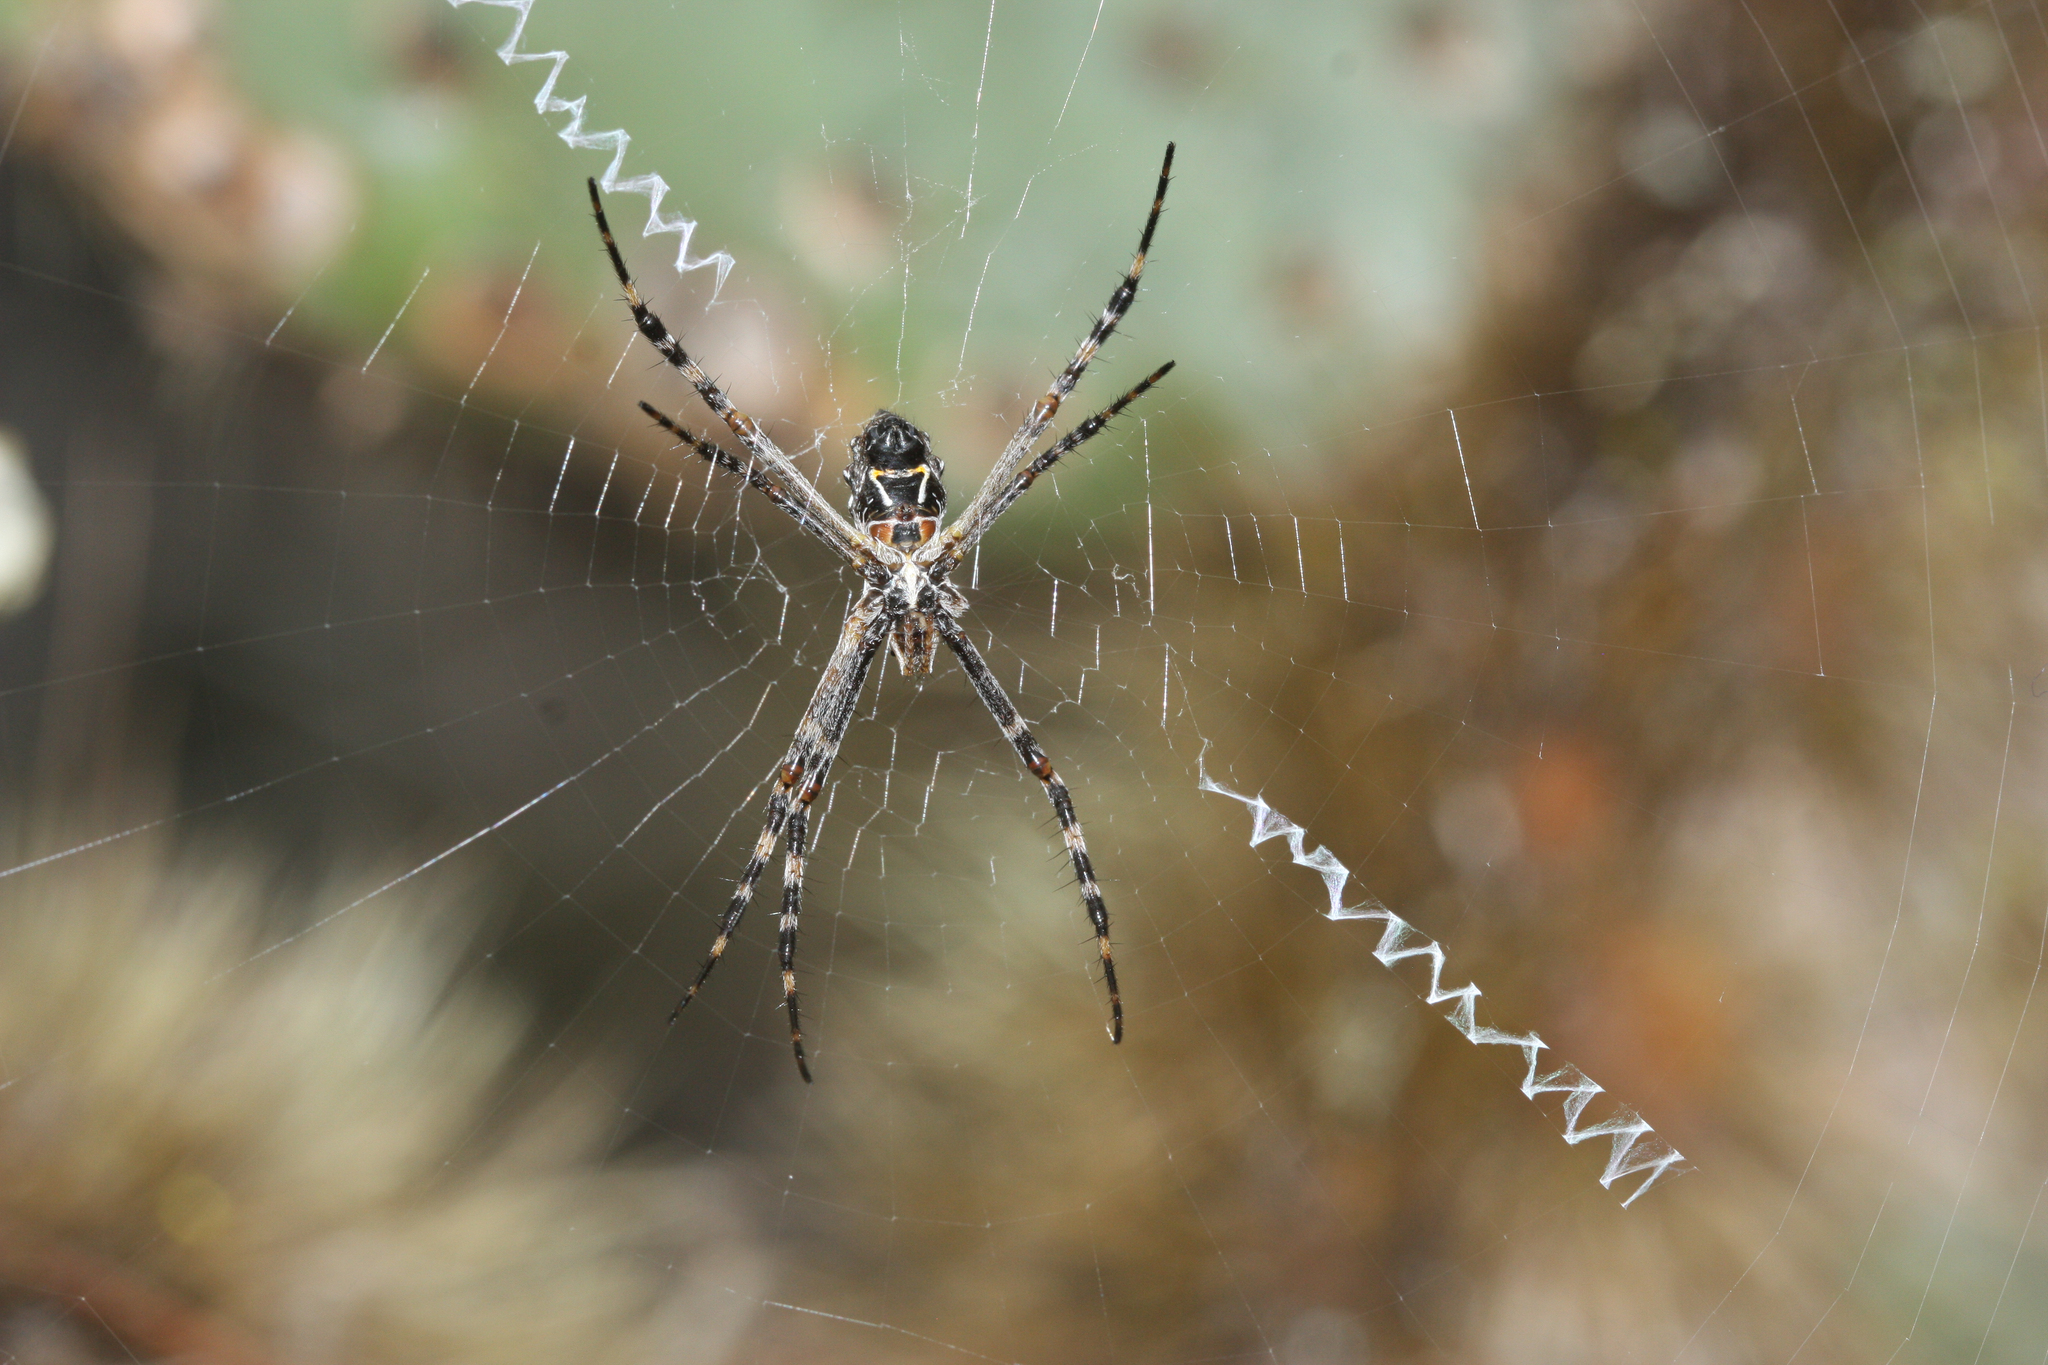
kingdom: Animalia
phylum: Arthropoda
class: Arachnida
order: Araneae
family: Araneidae
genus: Argiope
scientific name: Argiope argentata
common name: Orb weavers
